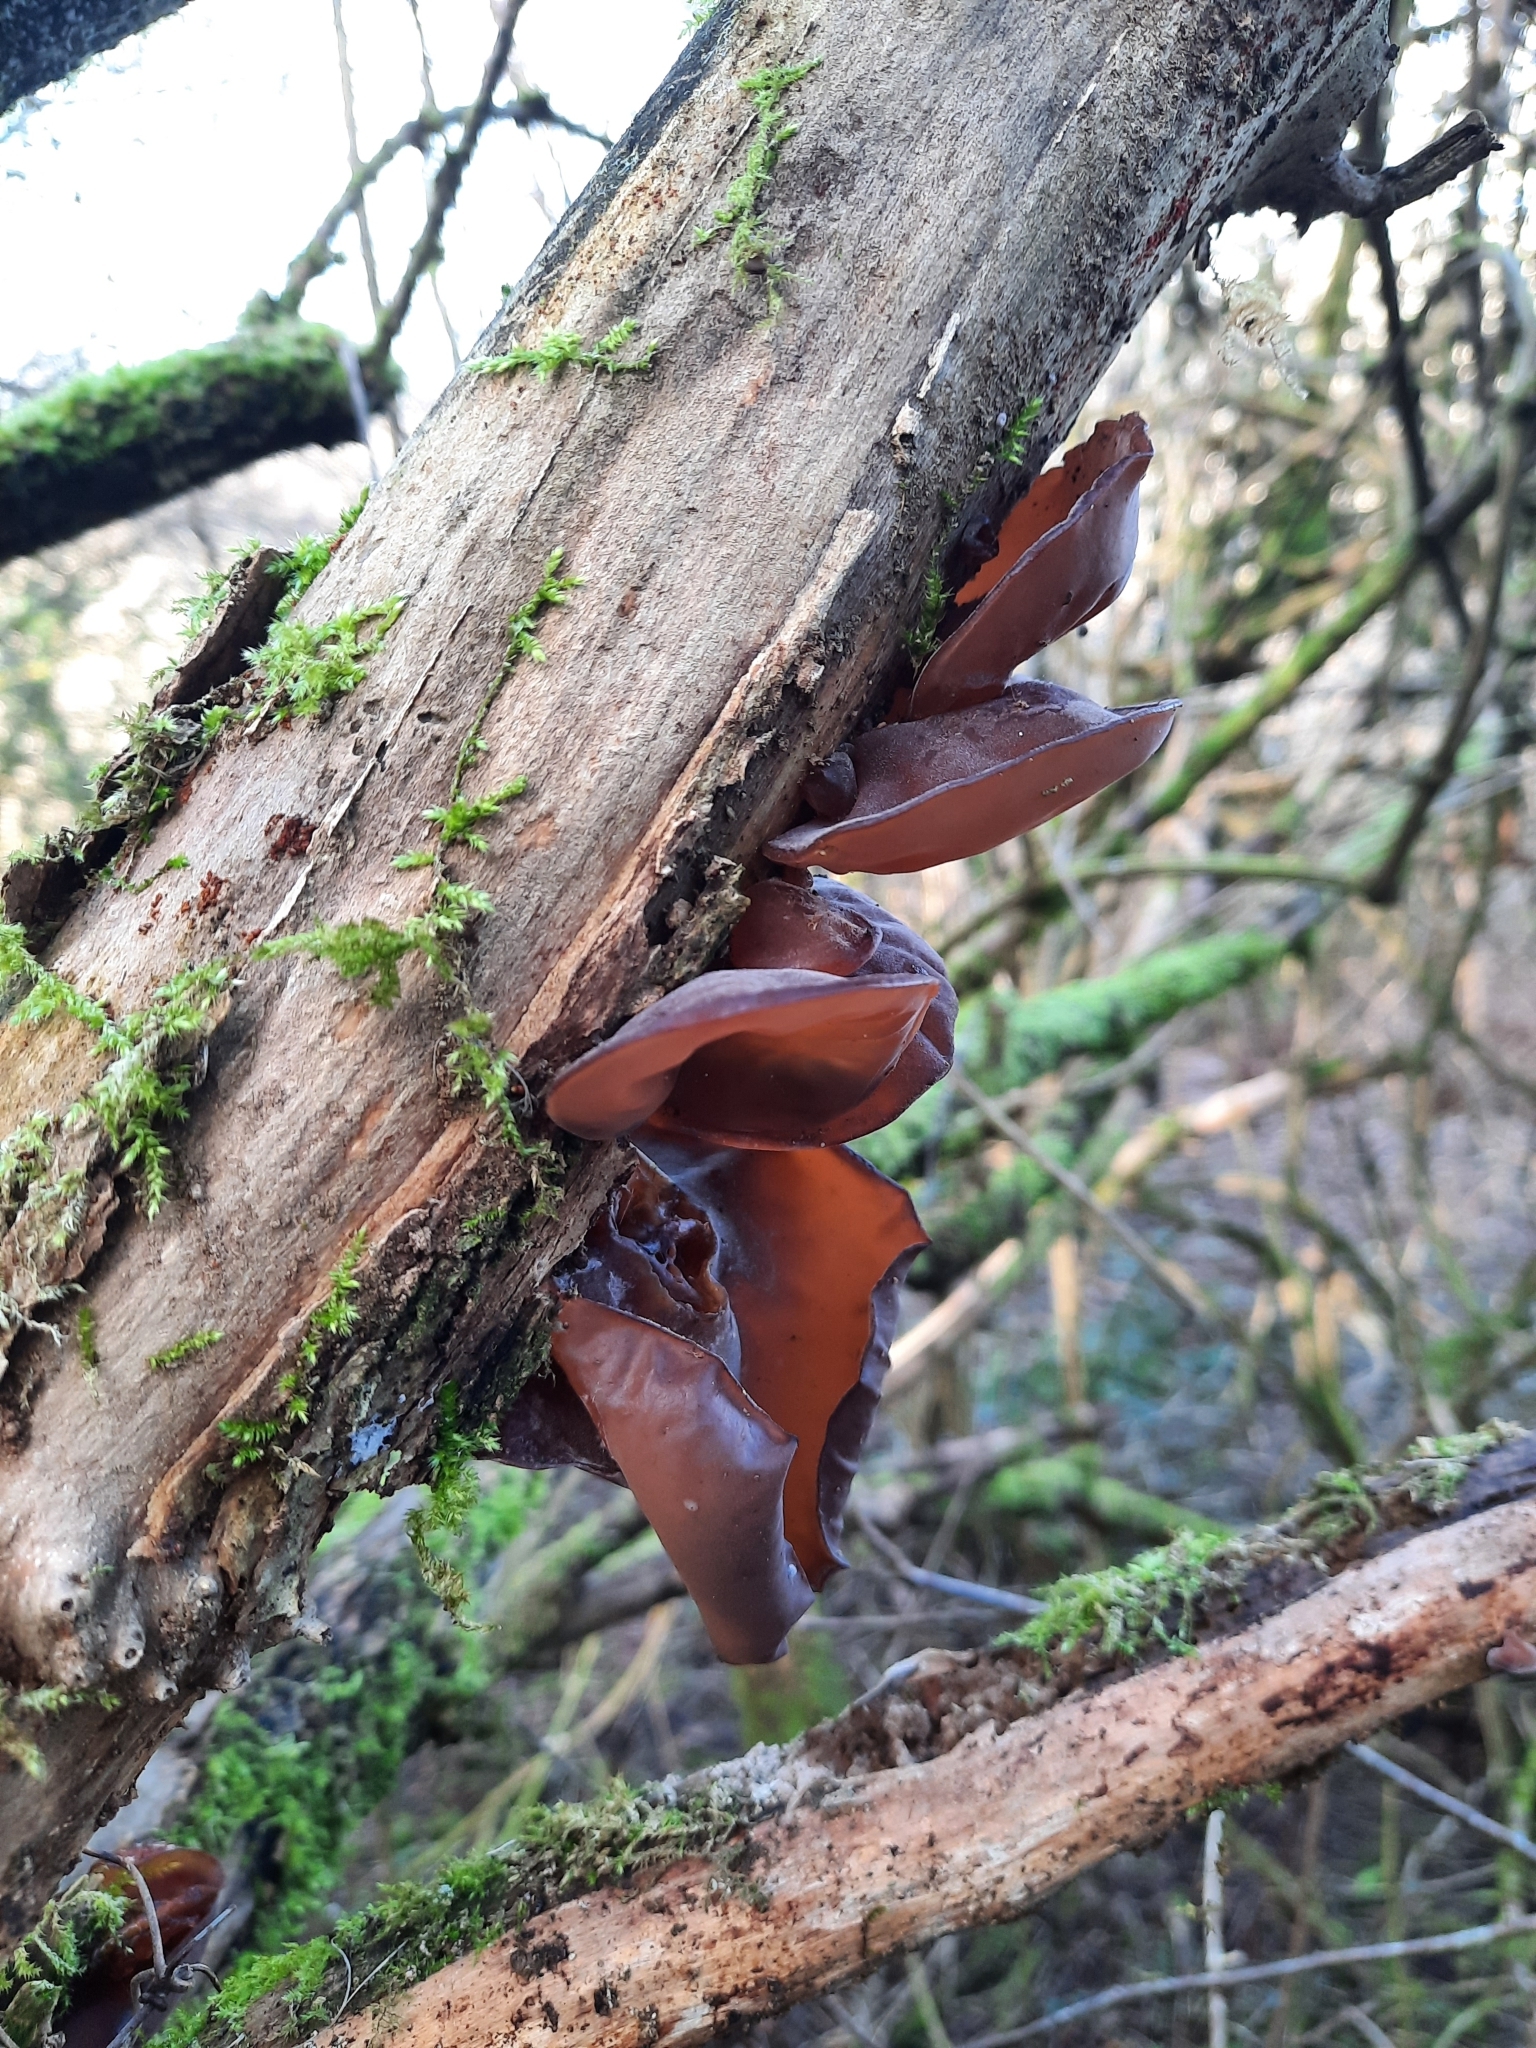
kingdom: Fungi
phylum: Basidiomycota
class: Agaricomycetes
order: Auriculariales
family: Auriculariaceae
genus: Auricularia
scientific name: Auricularia auricula-judae
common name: Jelly ear
